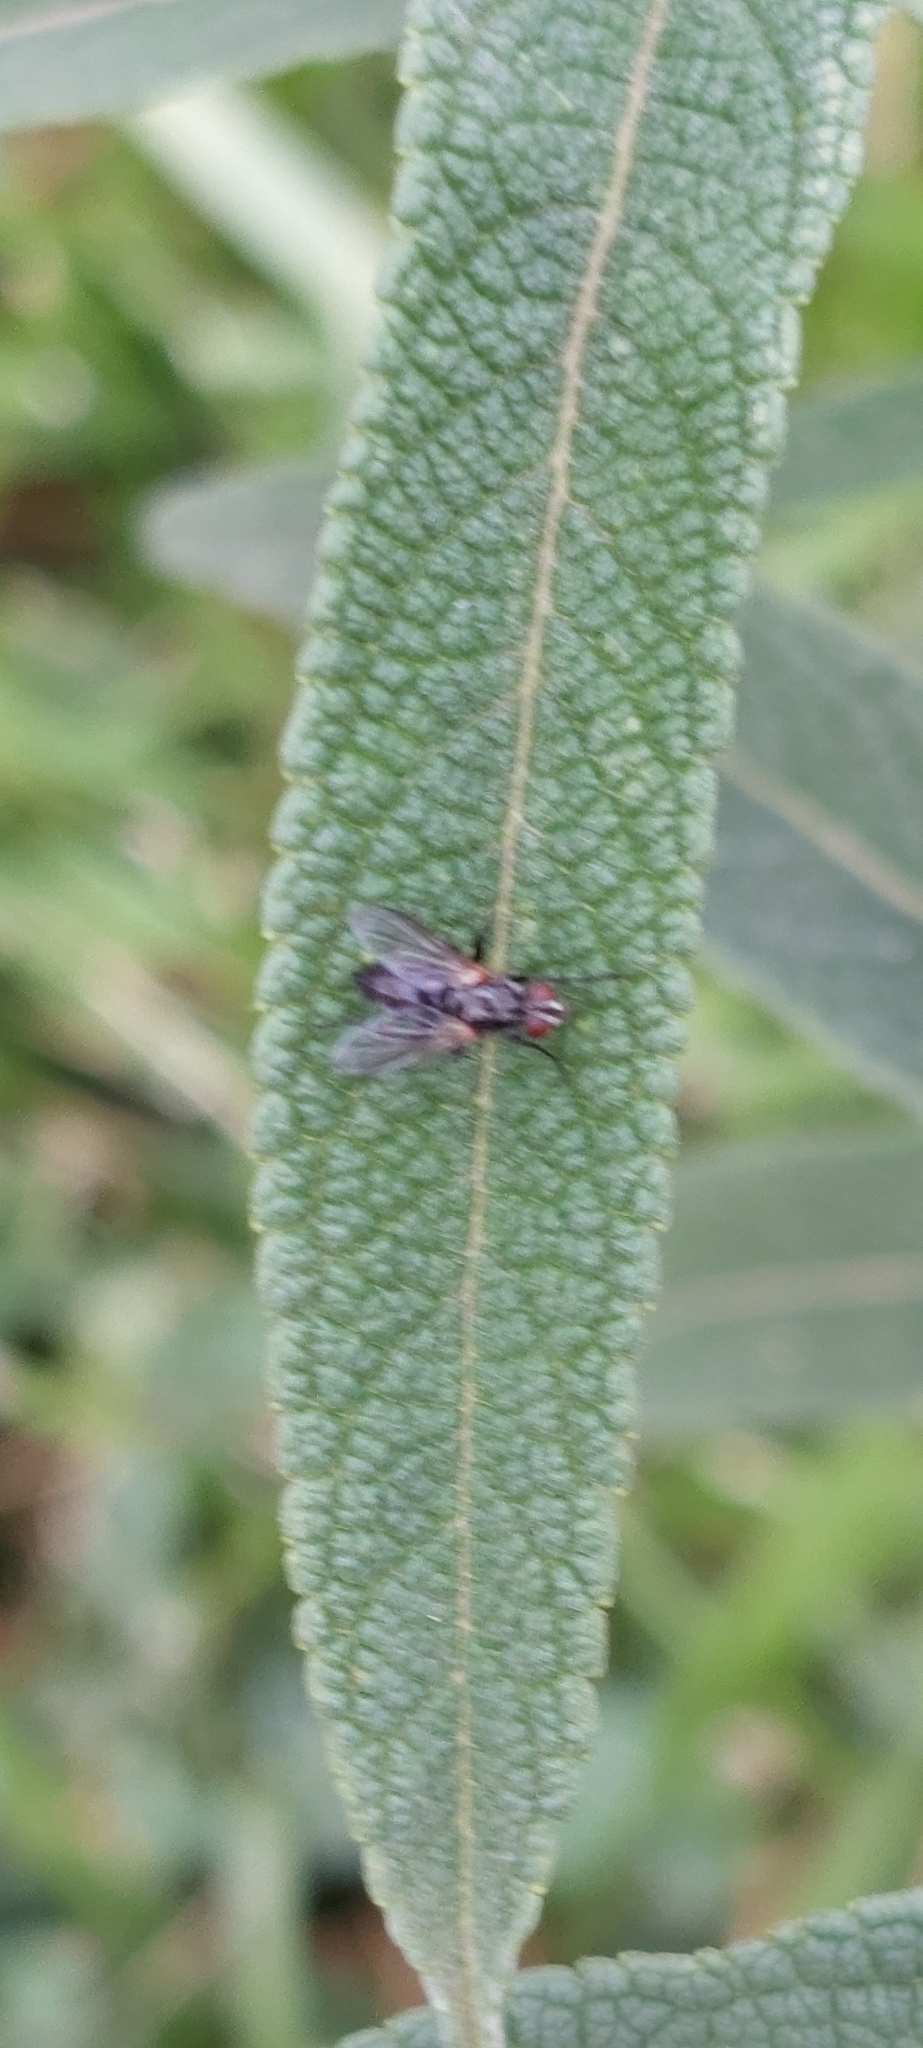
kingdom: Animalia
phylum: Arthropoda
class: Insecta
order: Diptera
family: Calliphoridae
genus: Stevenia
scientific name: Stevenia deceptoria
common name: Grizzled woodlouse-fly
